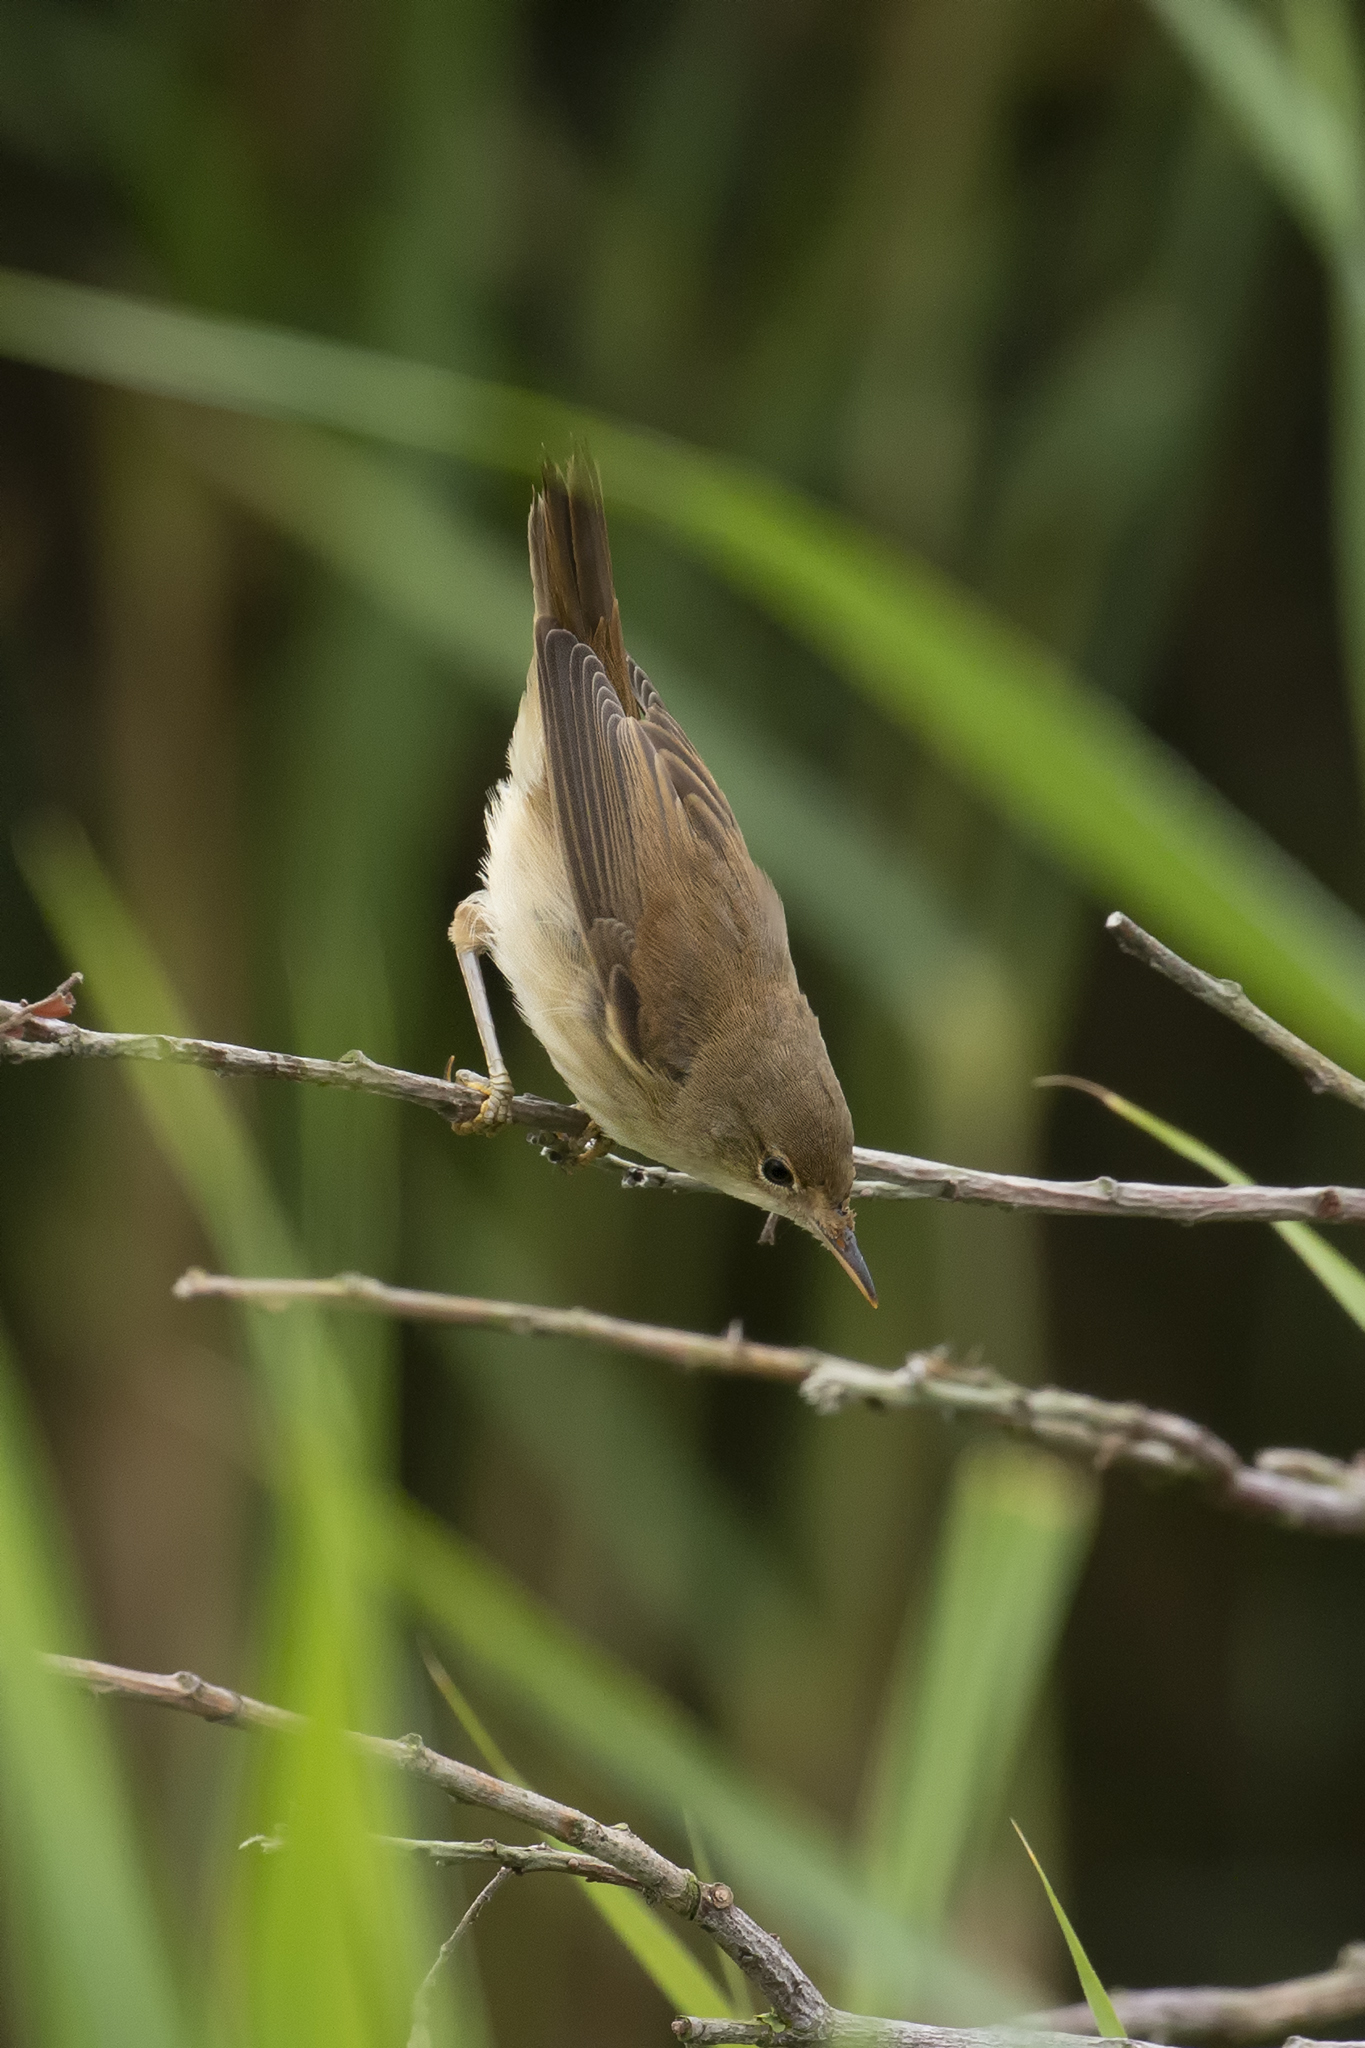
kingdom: Animalia
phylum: Chordata
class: Aves
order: Passeriformes
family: Acrocephalidae
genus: Acrocephalus
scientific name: Acrocephalus scirpaceus
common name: Eurasian reed warbler
